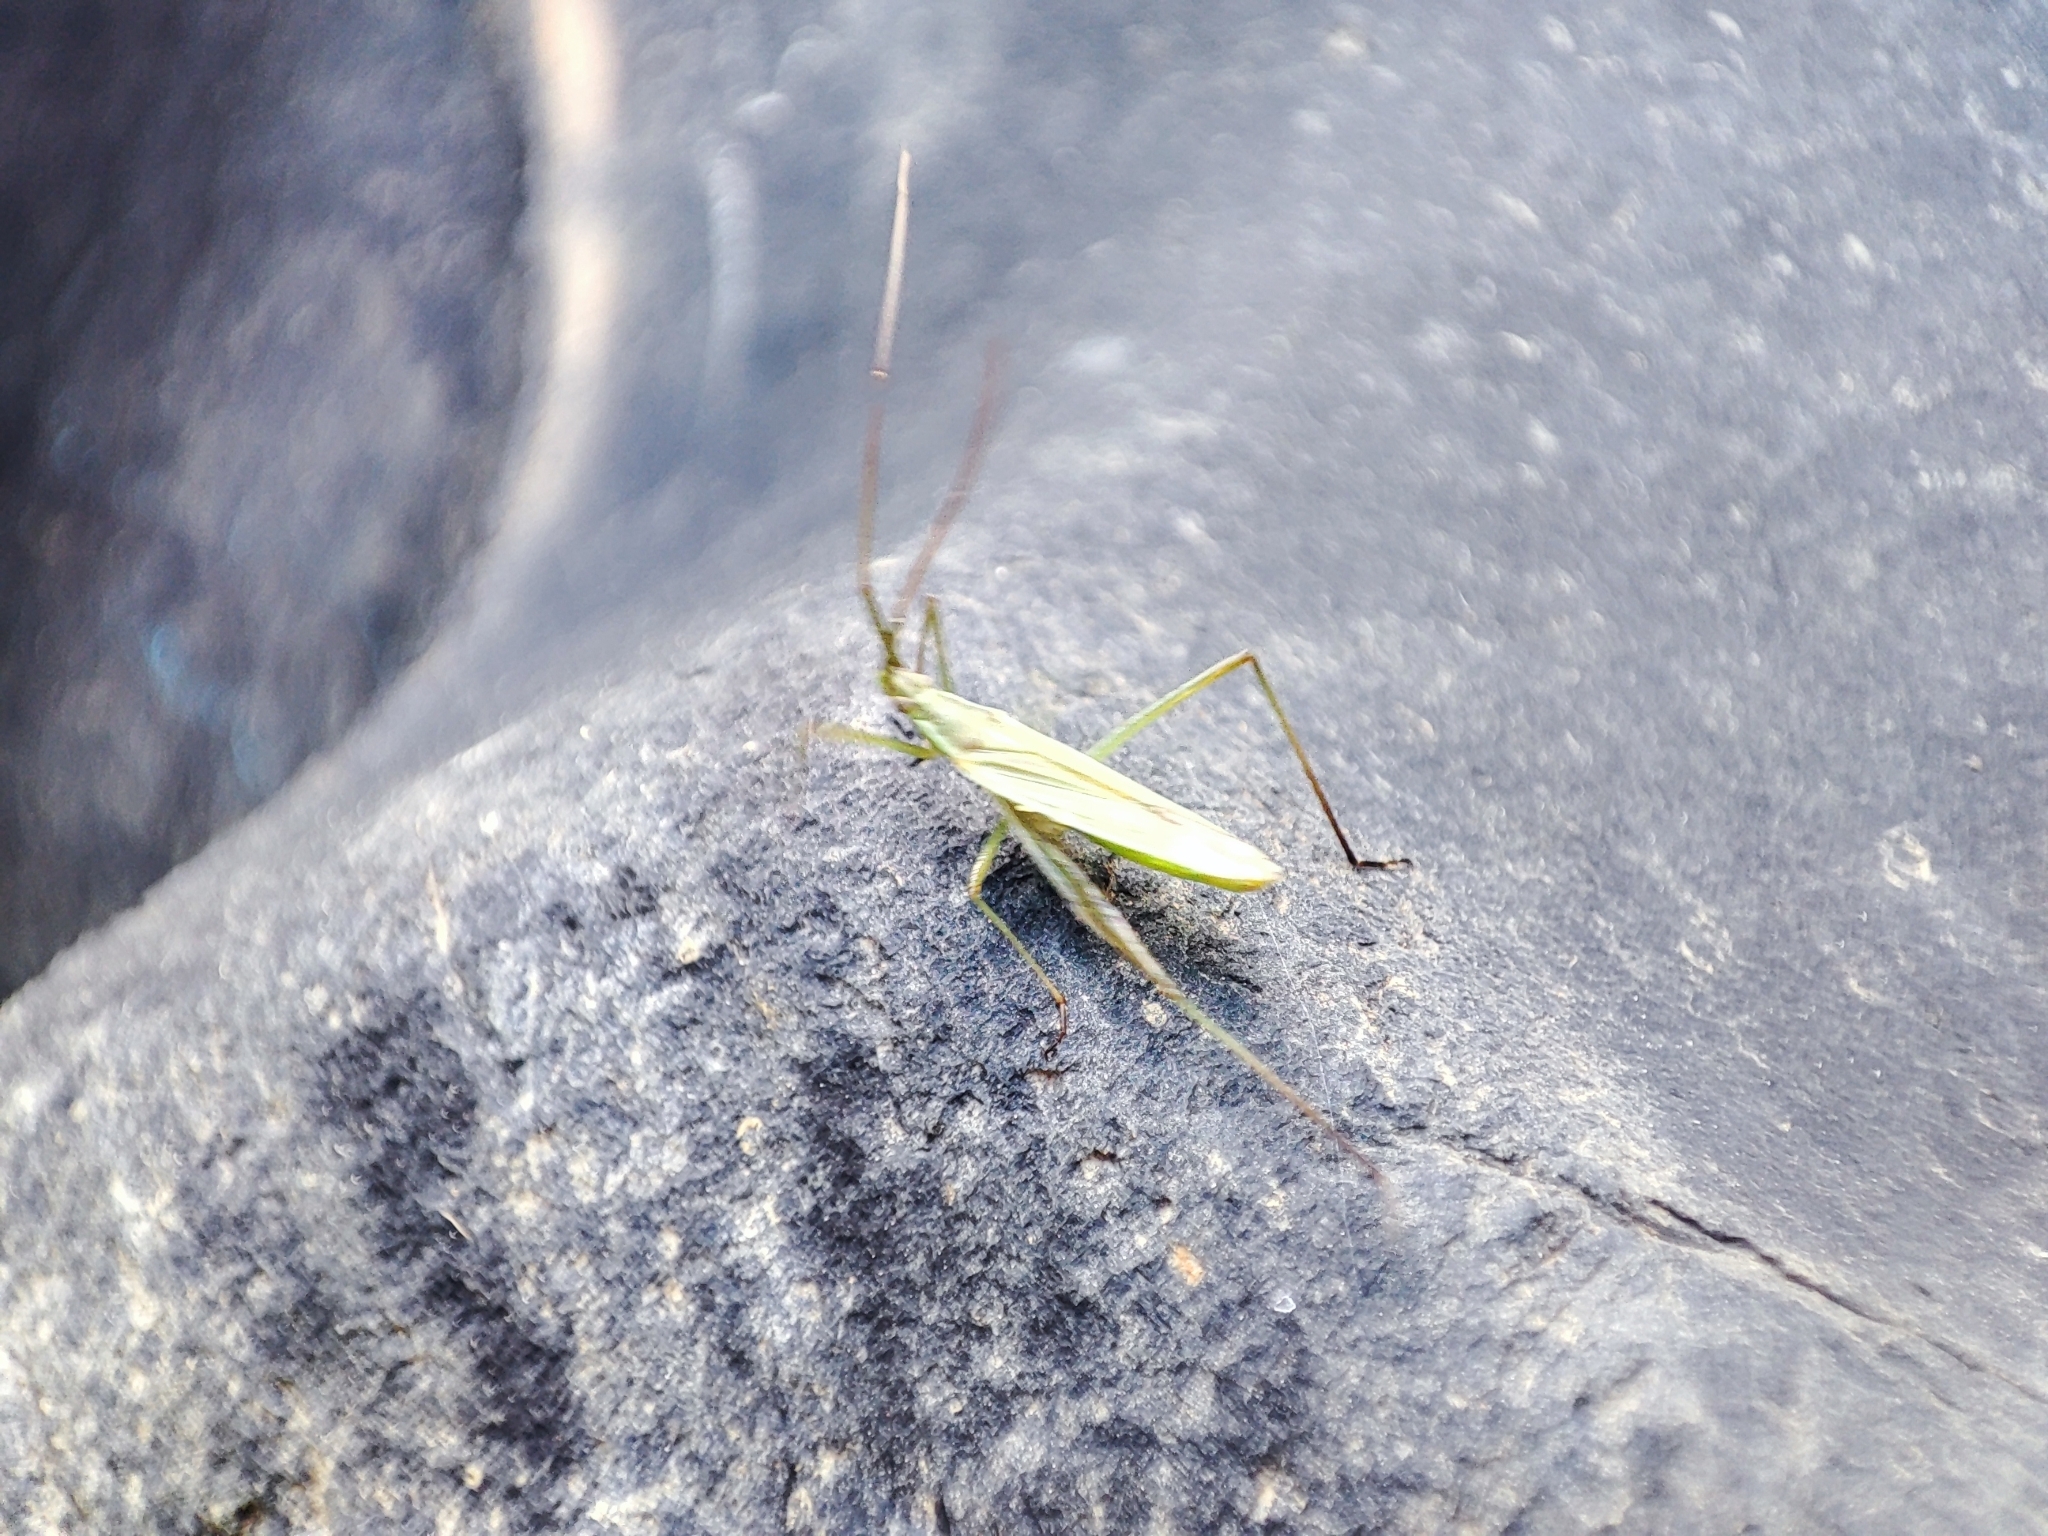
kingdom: Animalia
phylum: Arthropoda
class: Insecta
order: Hemiptera
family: Miridae
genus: Megaloceroea
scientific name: Megaloceroea recticornis
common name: Plant bug
